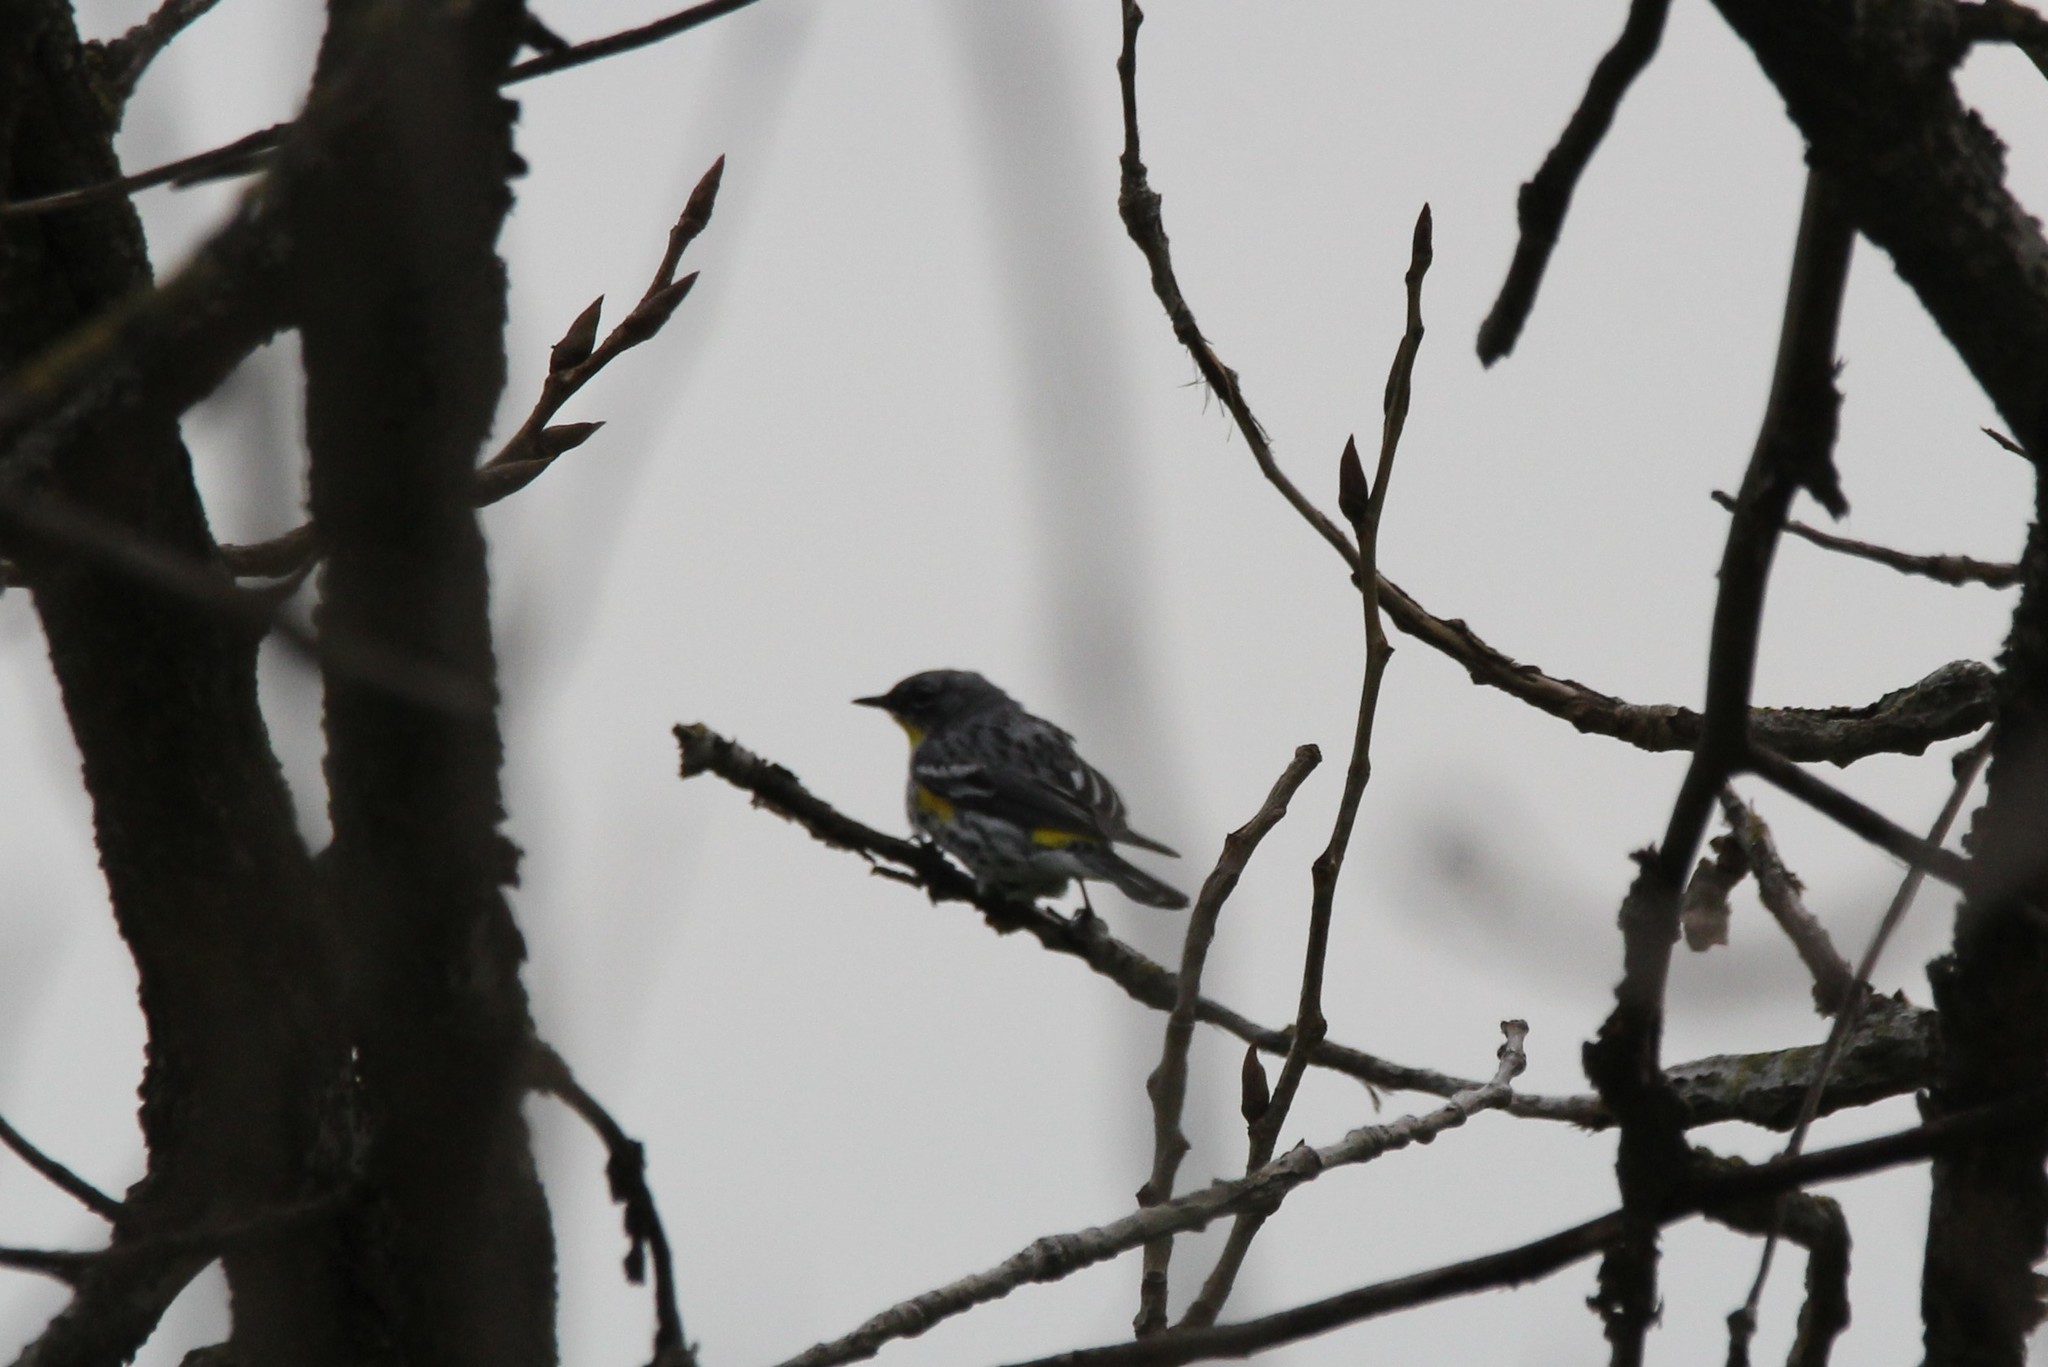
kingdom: Animalia
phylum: Chordata
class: Aves
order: Passeriformes
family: Parulidae
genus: Setophaga
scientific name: Setophaga coronata
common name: Myrtle warbler
